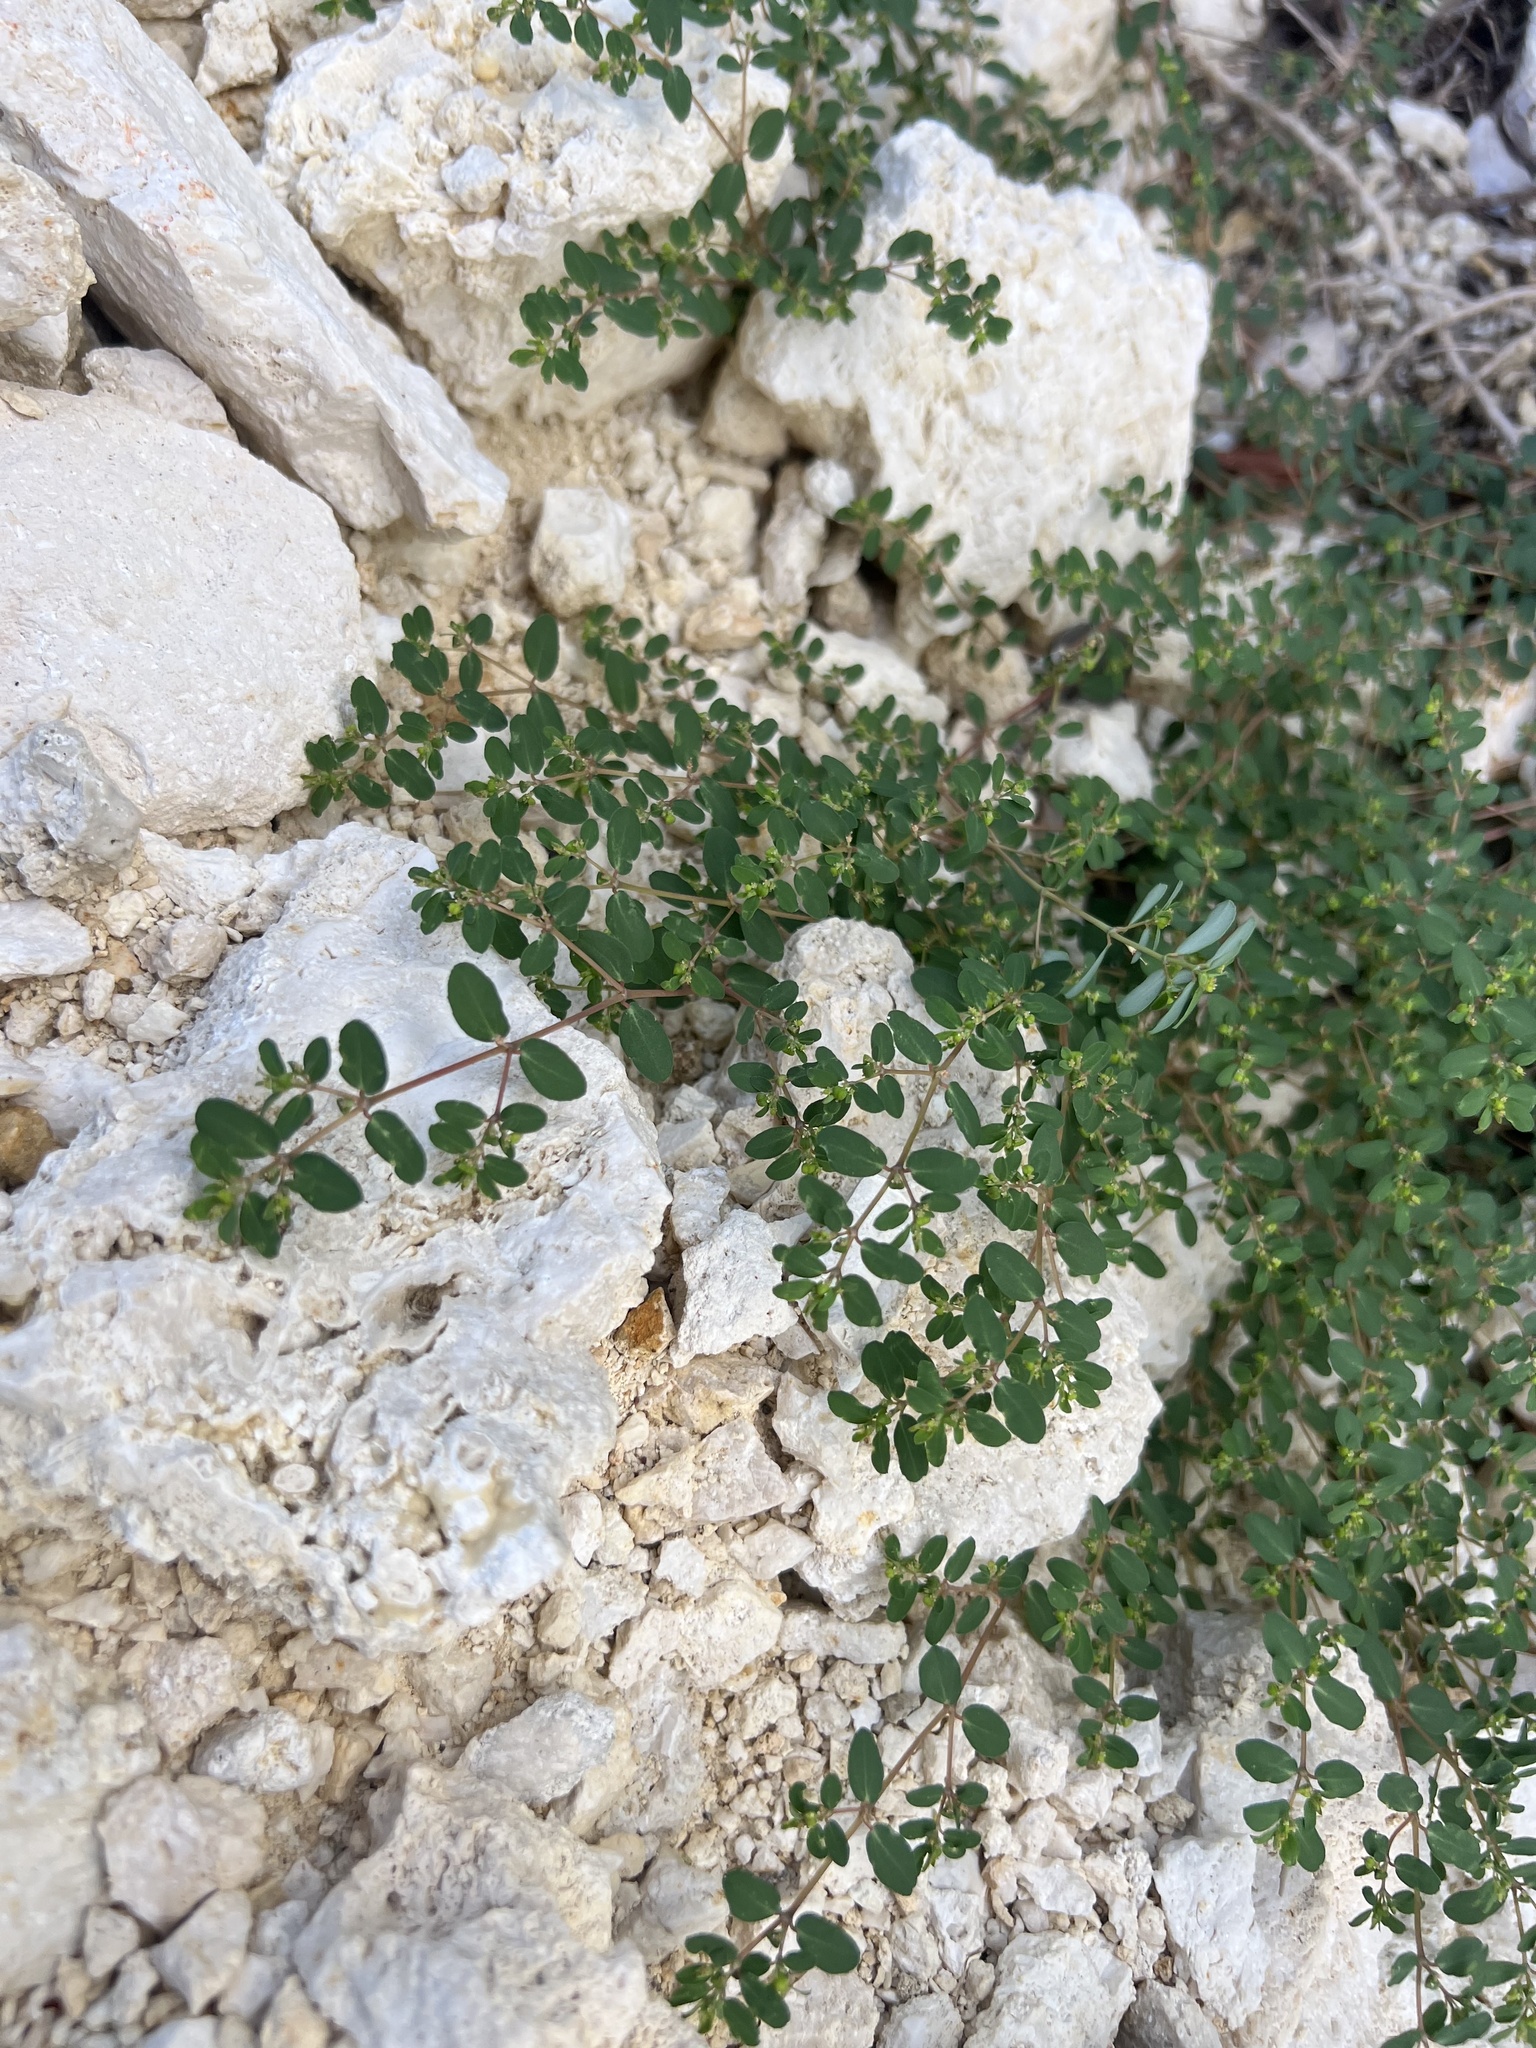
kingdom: Plantae
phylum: Tracheophyta
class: Magnoliopsida
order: Malpighiales
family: Euphorbiaceae
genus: Euphorbia
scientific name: Euphorbia hyssopifolia
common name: Hyssopleaf sandmat
